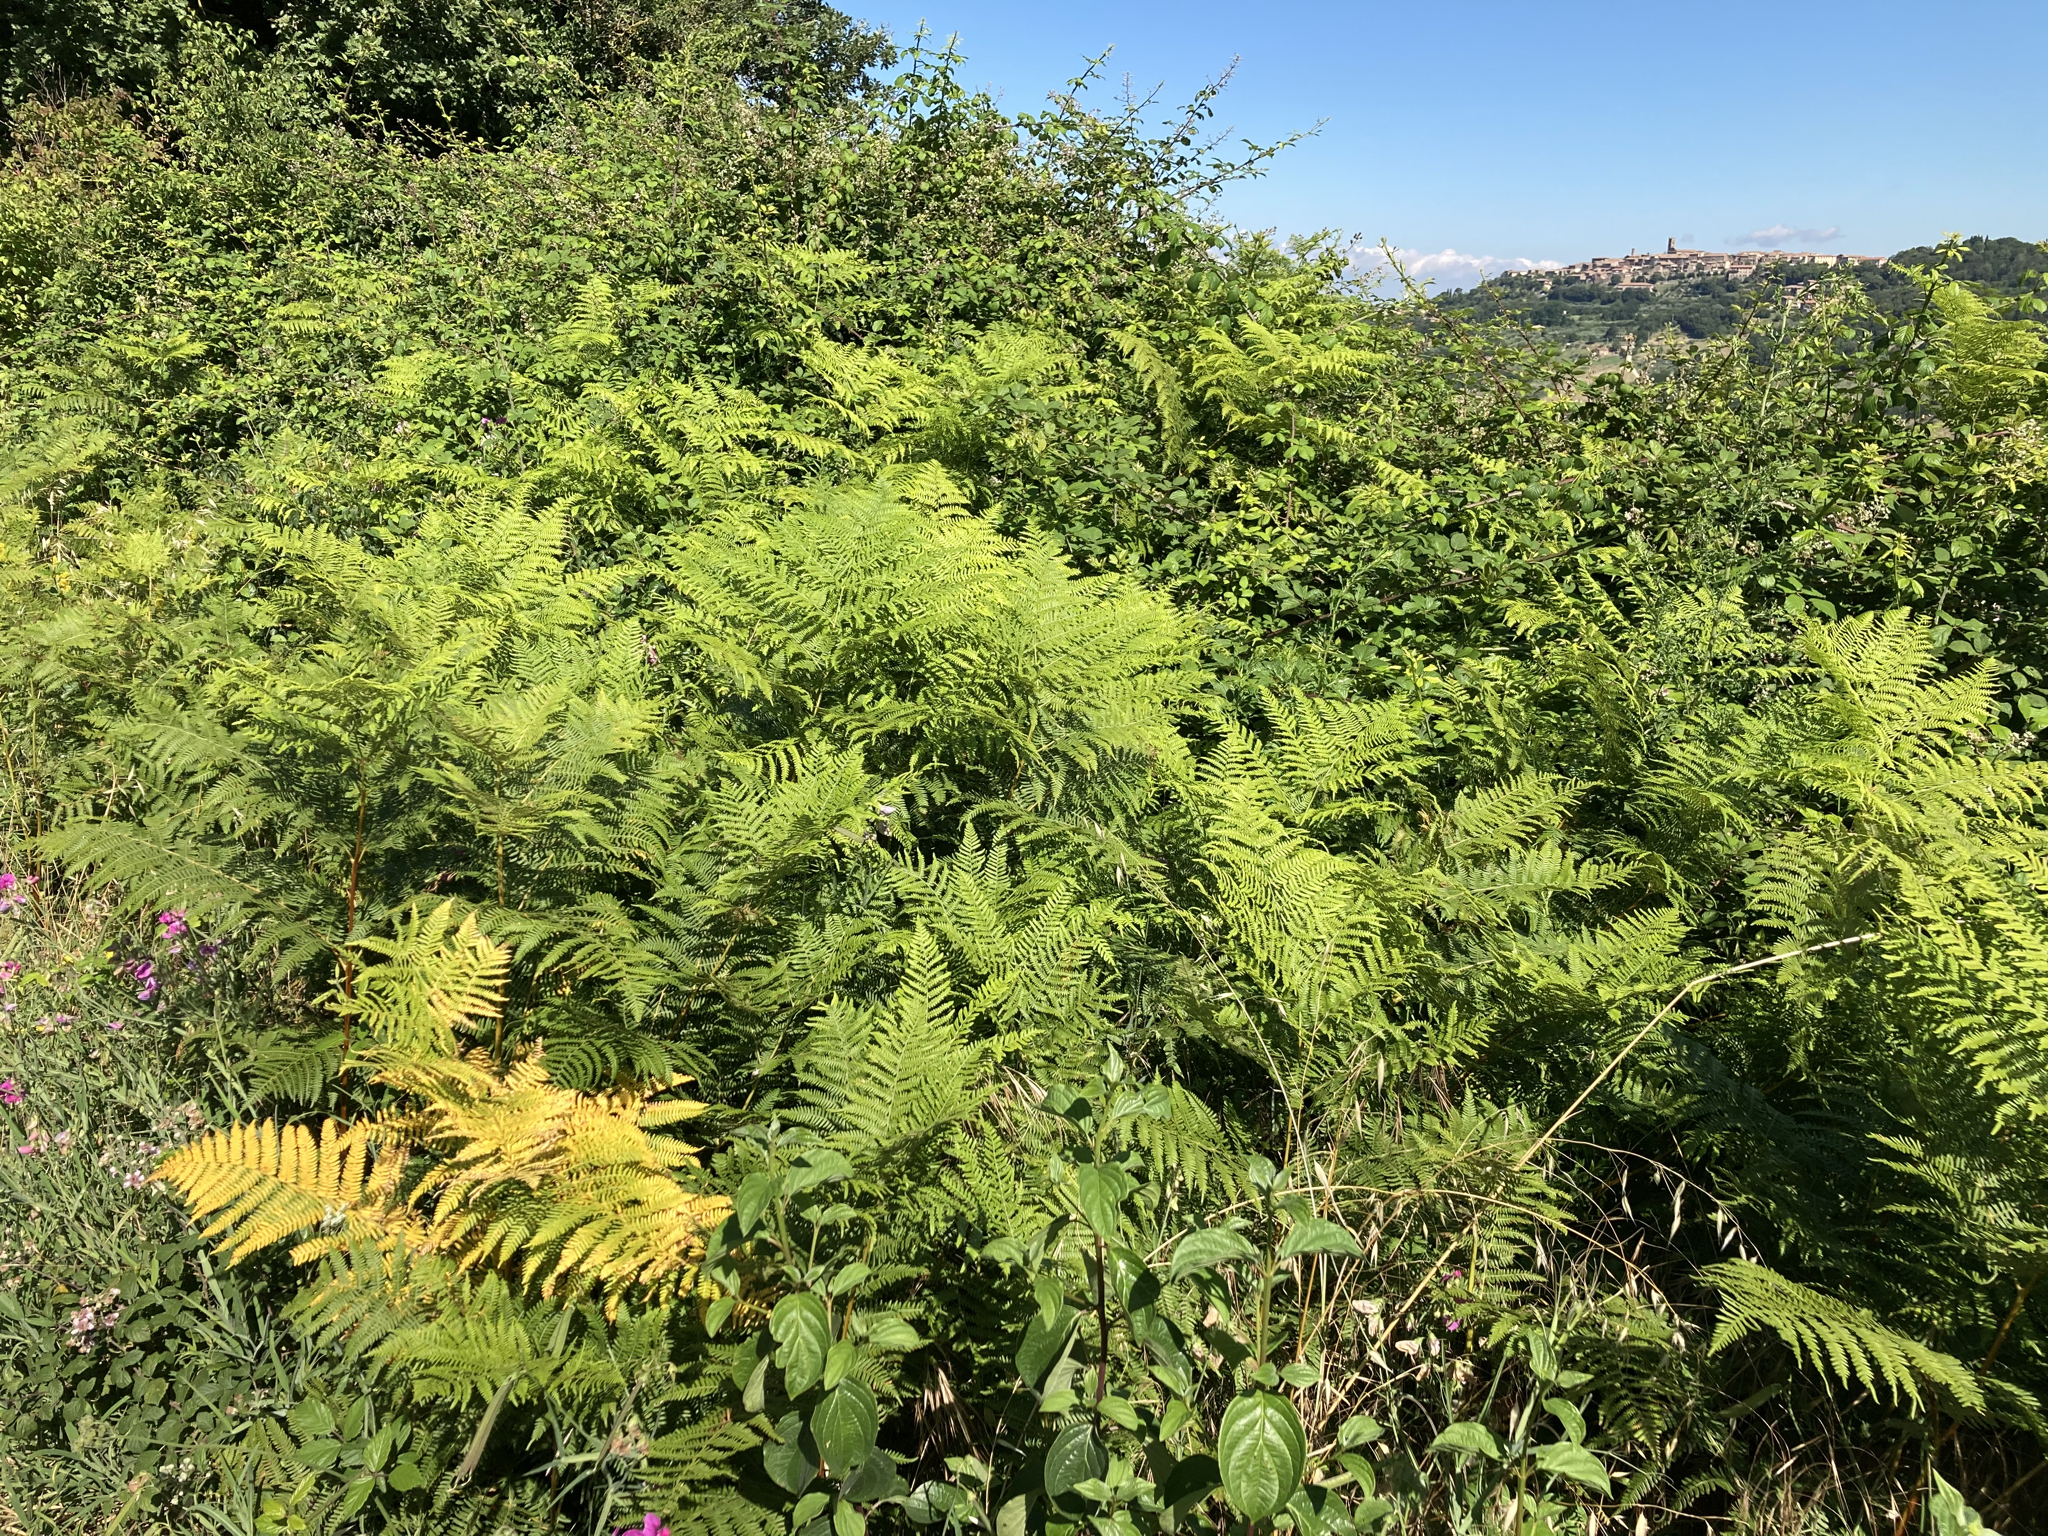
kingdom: Plantae
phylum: Tracheophyta
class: Polypodiopsida
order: Polypodiales
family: Dennstaedtiaceae
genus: Pteridium
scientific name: Pteridium aquilinum
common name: Bracken
